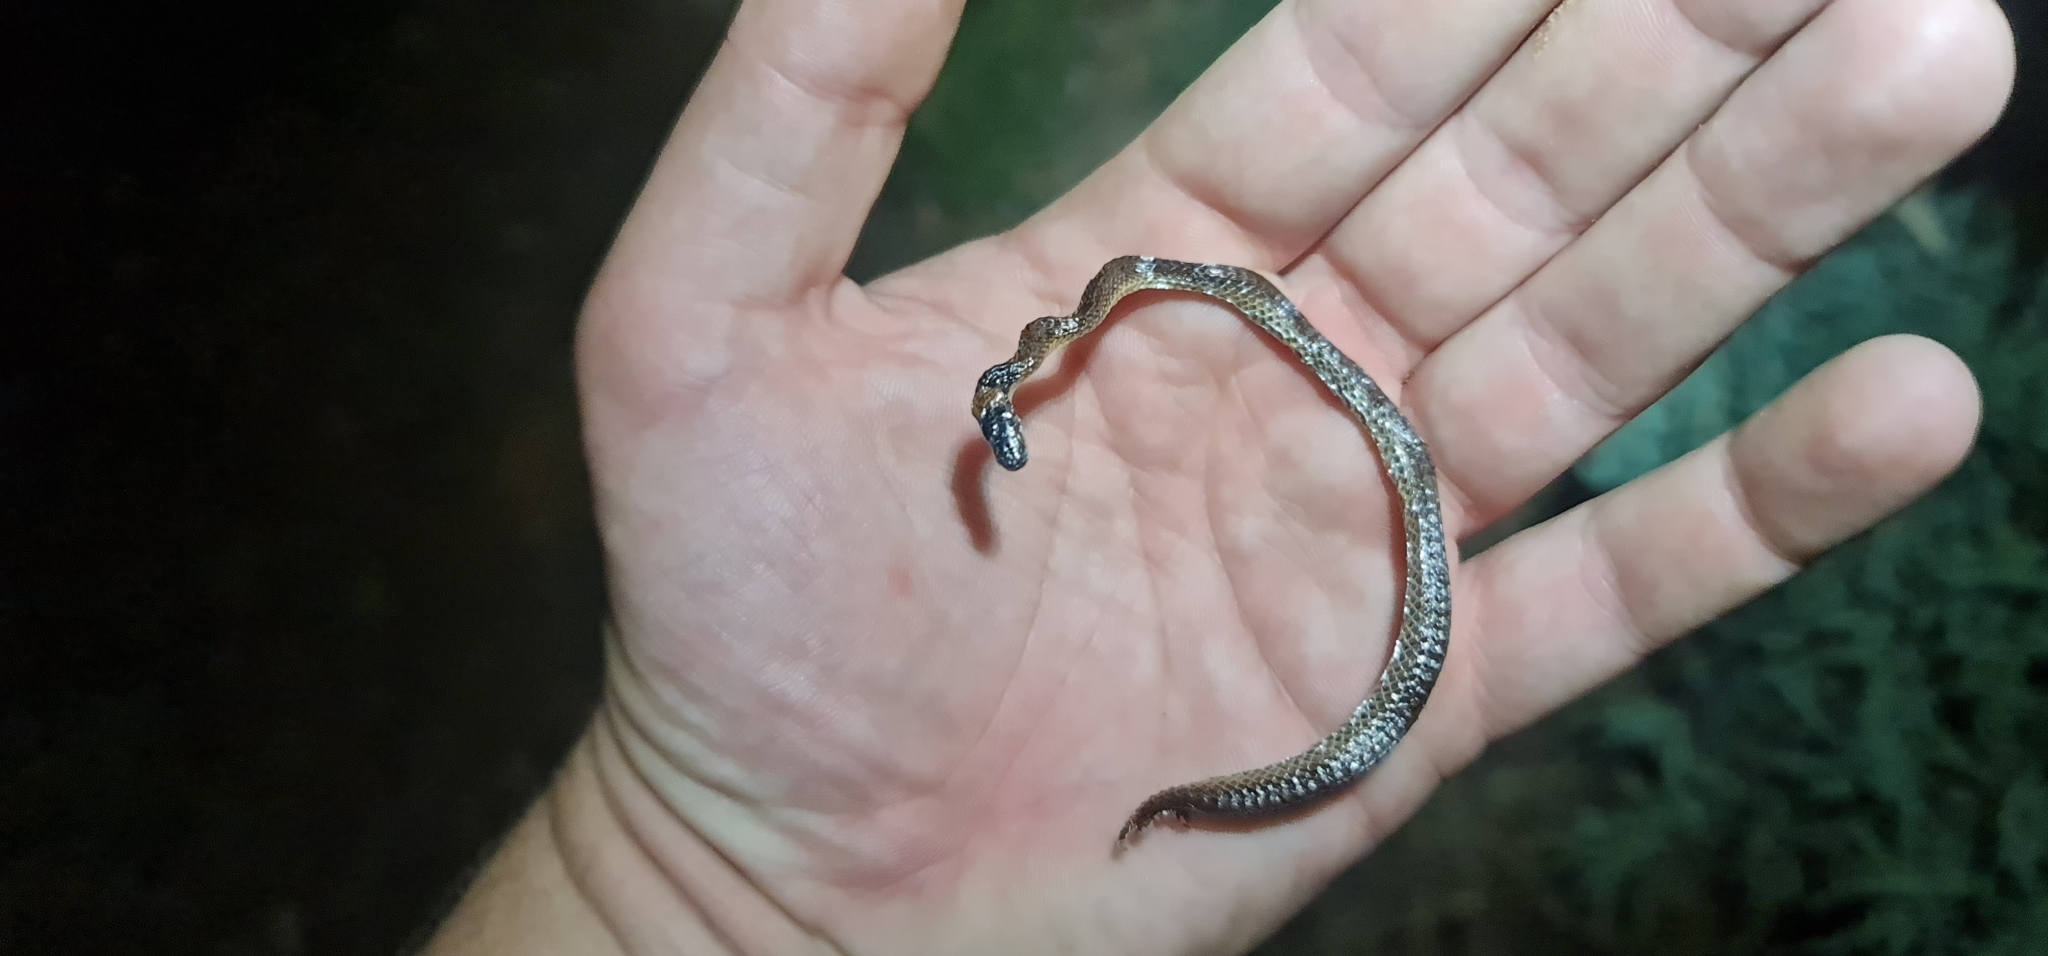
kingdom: Animalia
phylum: Chordata
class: Squamata
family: Elapidae
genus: Furina
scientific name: Furina diadema
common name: Red-naped snake
